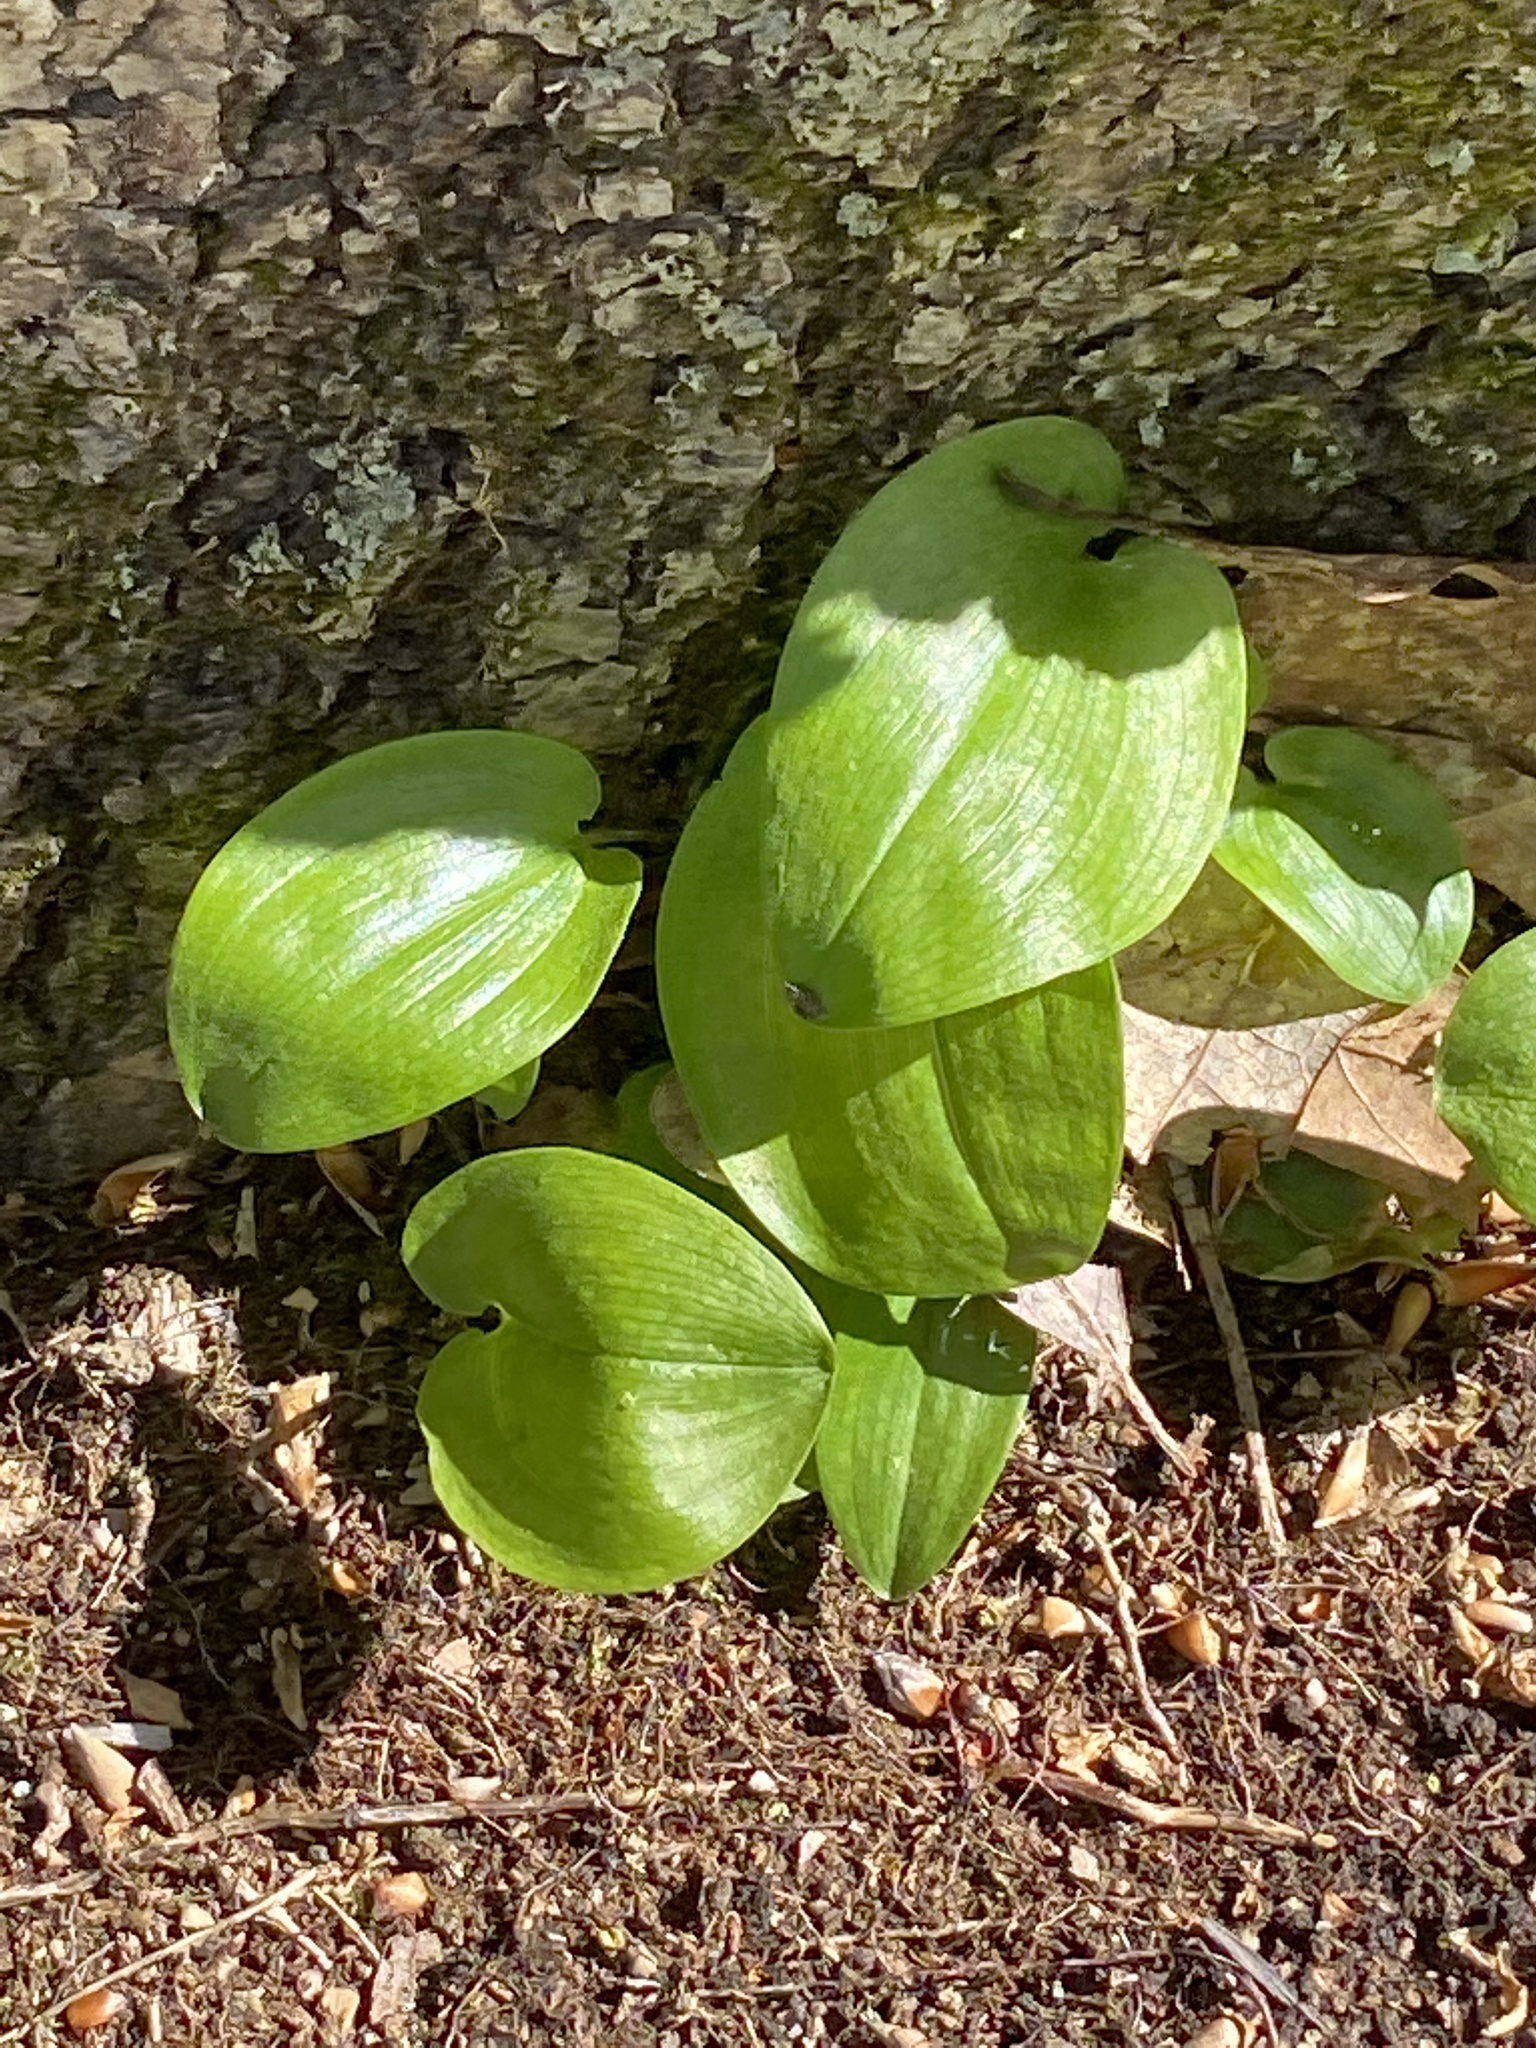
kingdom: Plantae
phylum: Tracheophyta
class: Liliopsida
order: Asparagales
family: Asparagaceae
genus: Maianthemum
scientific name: Maianthemum canadense
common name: False lily-of-the-valley
